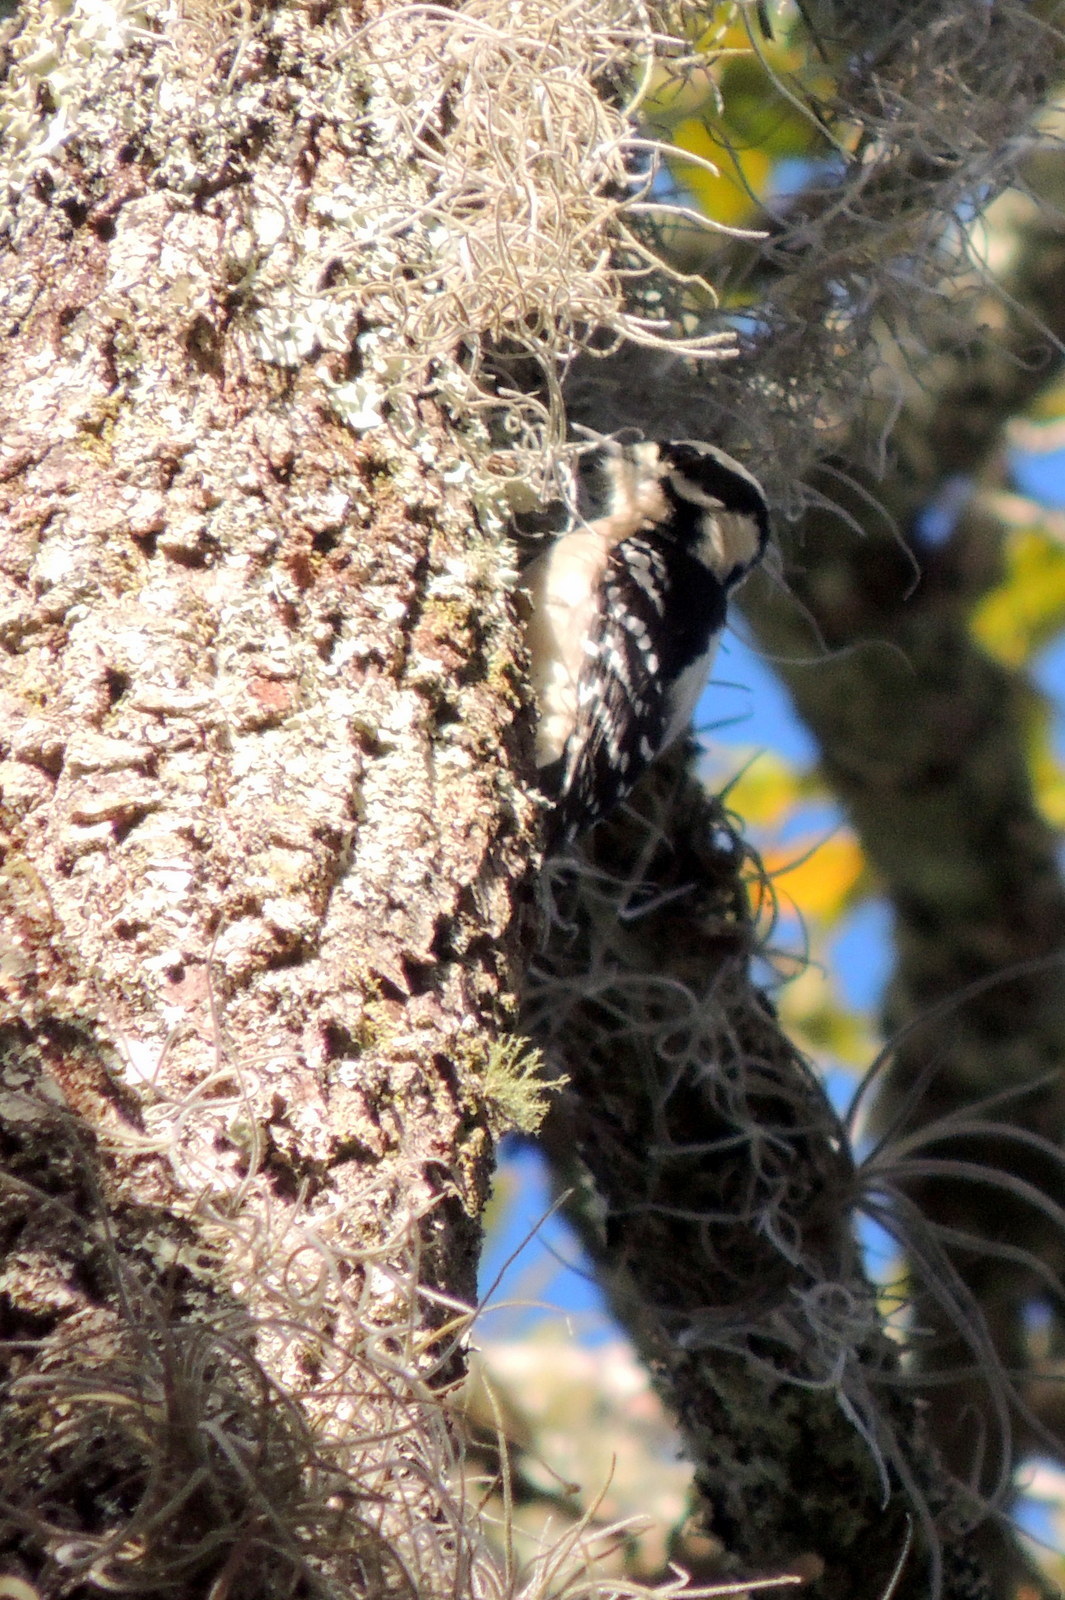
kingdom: Animalia
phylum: Chordata
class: Aves
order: Piciformes
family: Picidae
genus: Dryobates
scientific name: Dryobates pubescens
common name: Downy woodpecker
